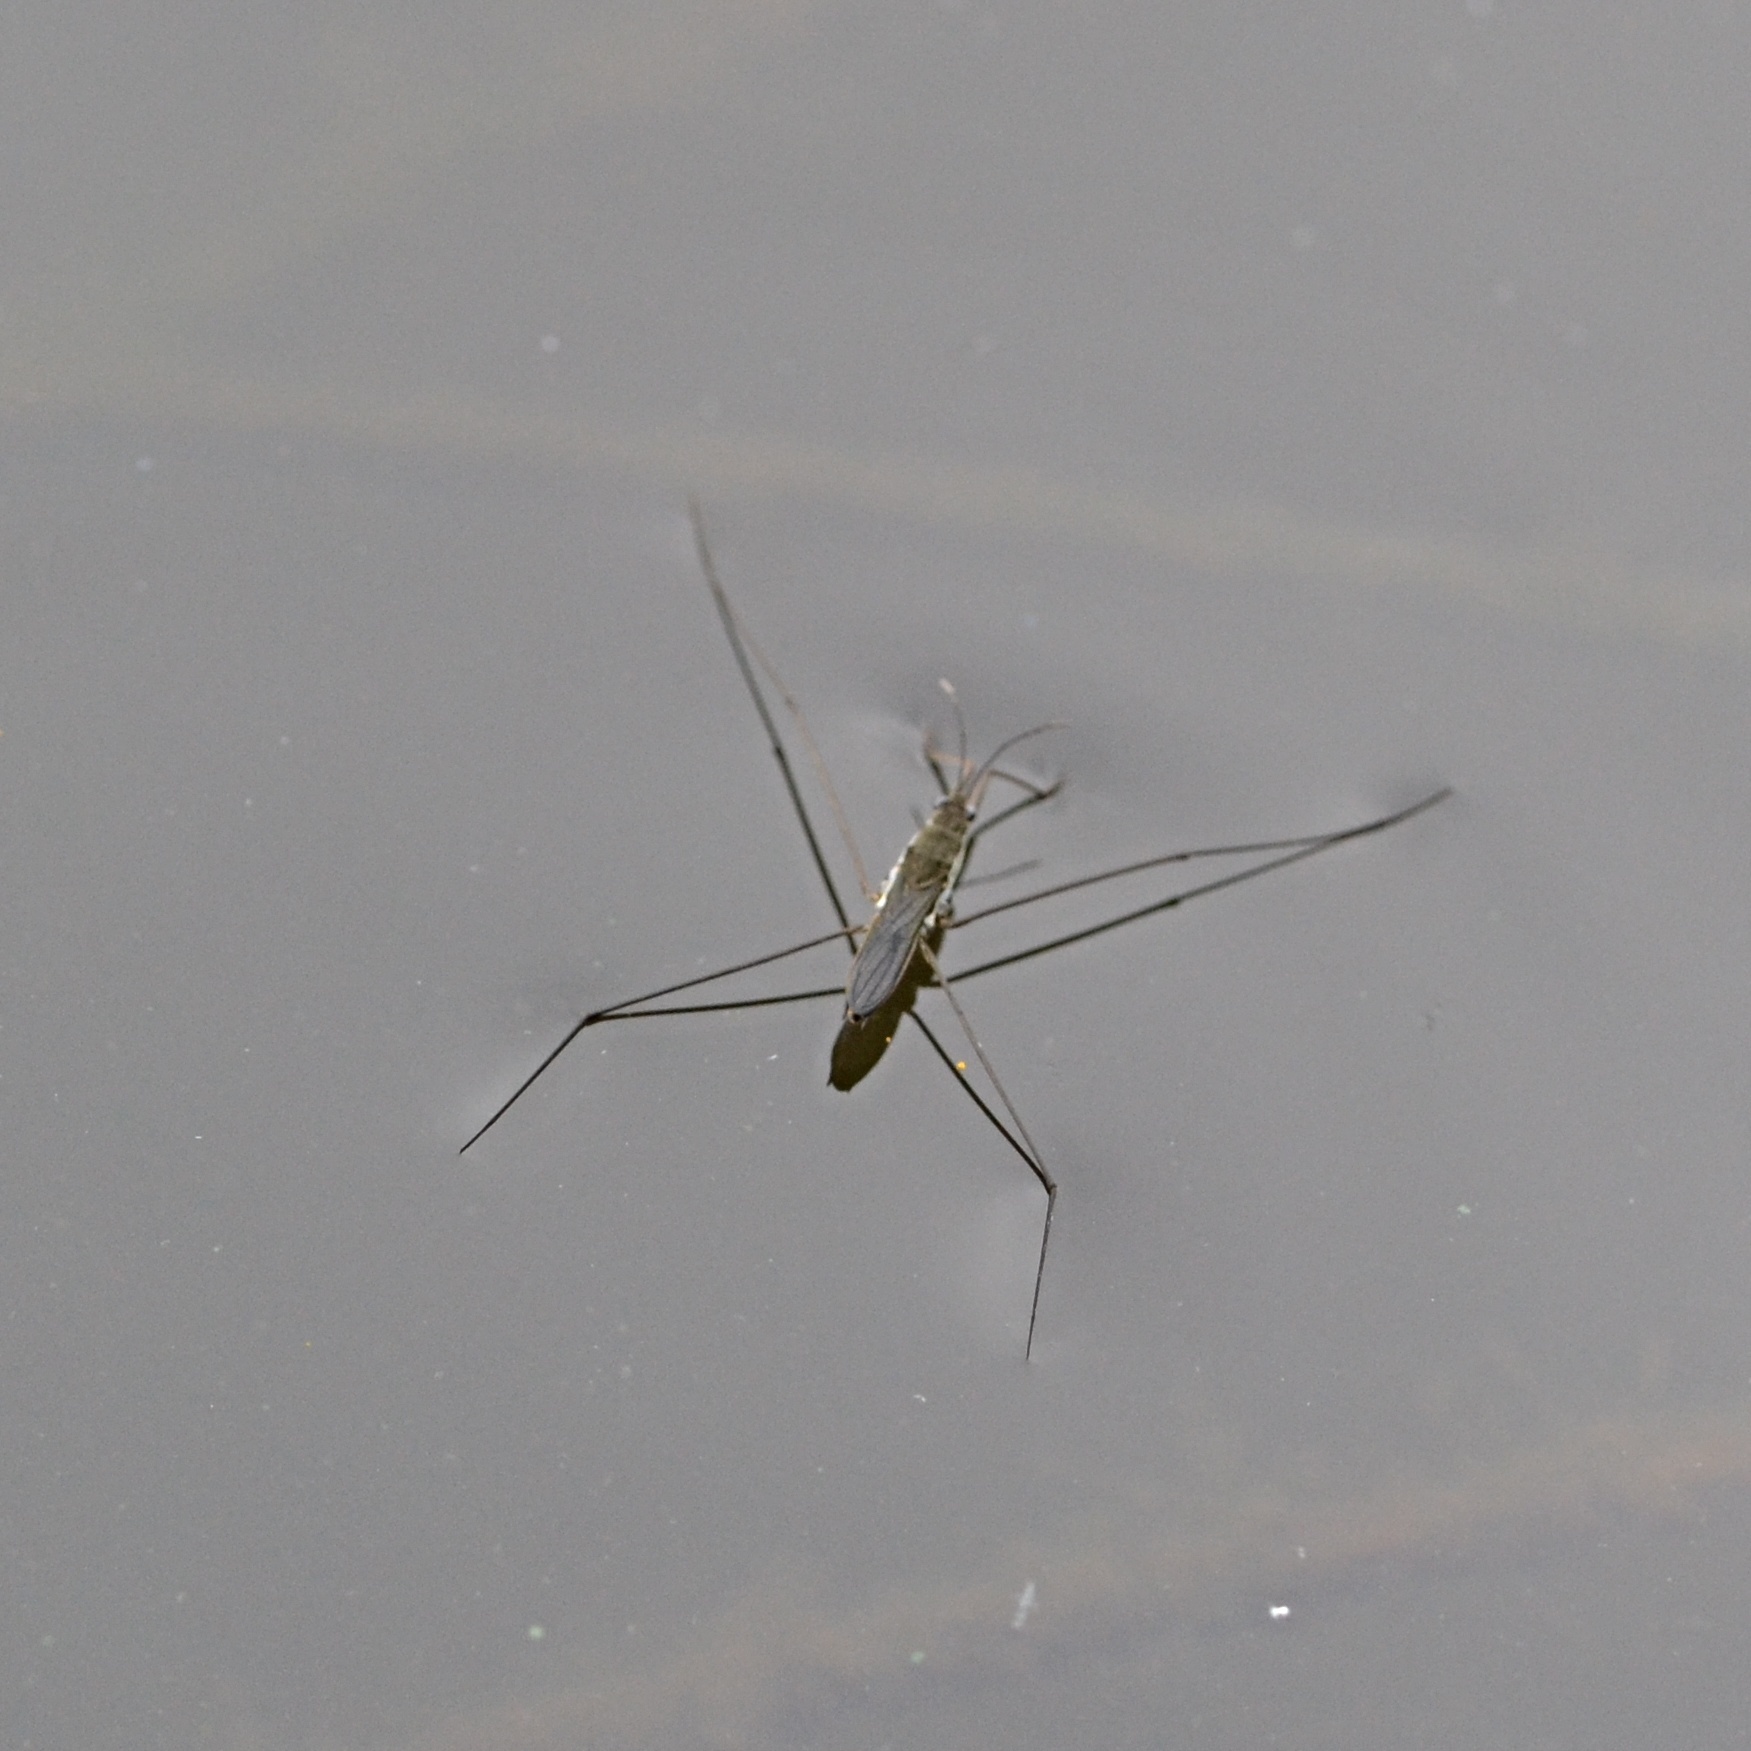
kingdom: Animalia
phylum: Arthropoda
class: Insecta
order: Hemiptera
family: Gerridae
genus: Aquarius
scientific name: Aquarius paludum
